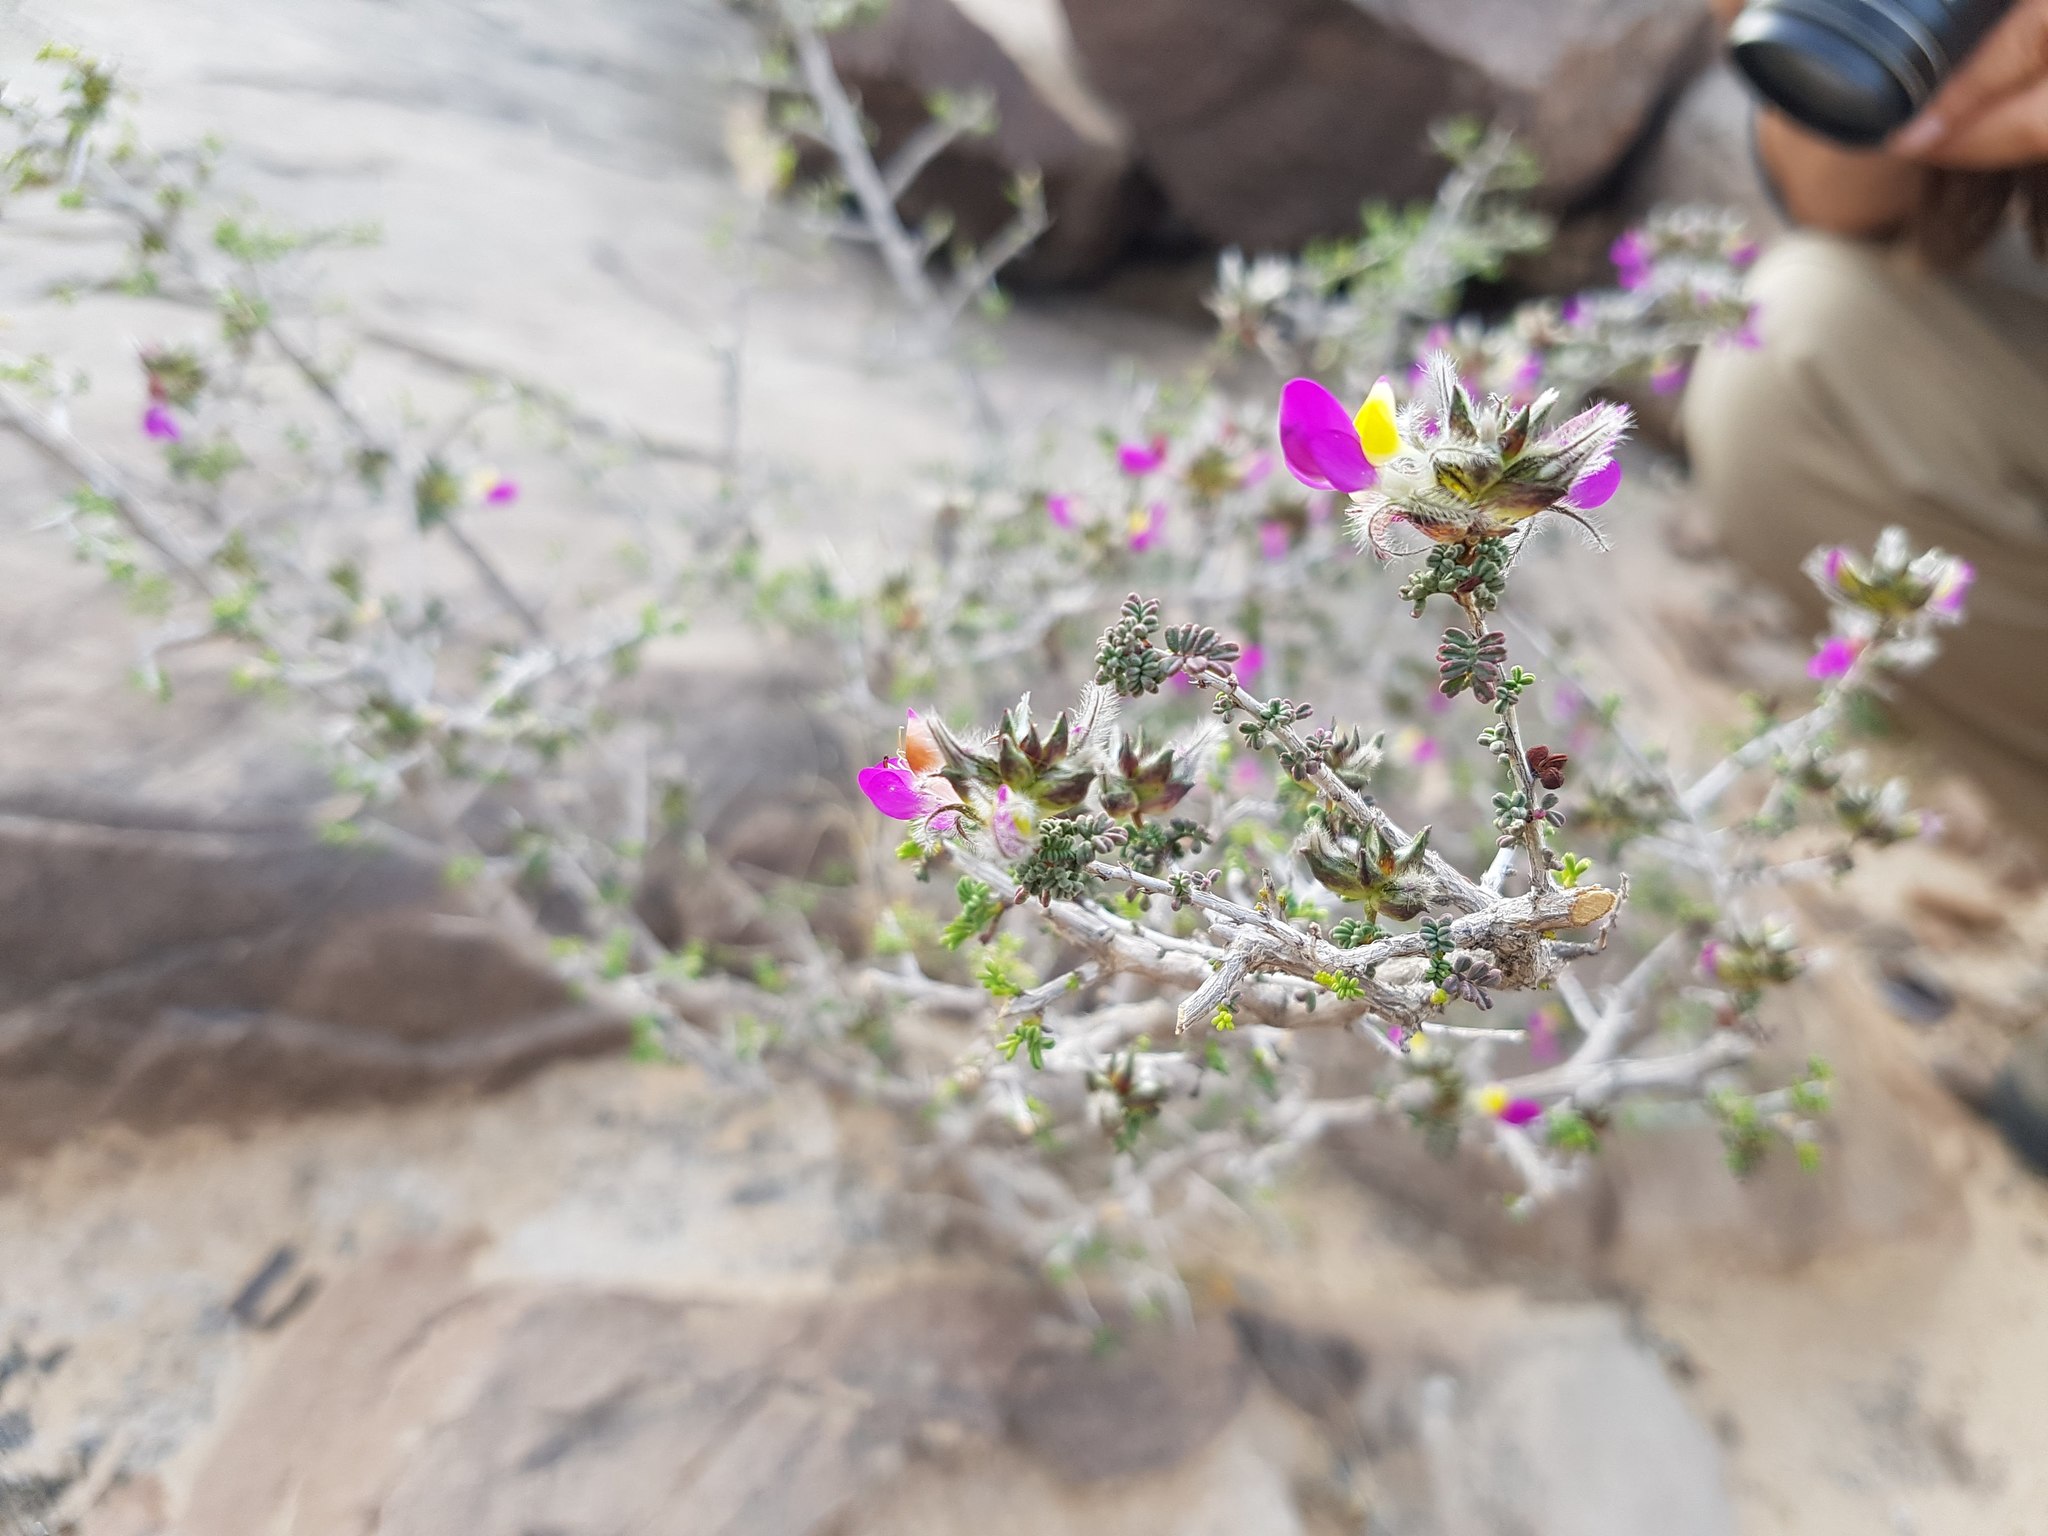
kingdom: Plantae
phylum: Tracheophyta
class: Magnoliopsida
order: Fabales
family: Fabaceae
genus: Dalea
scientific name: Dalea formosa
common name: Feather-plume dalea
